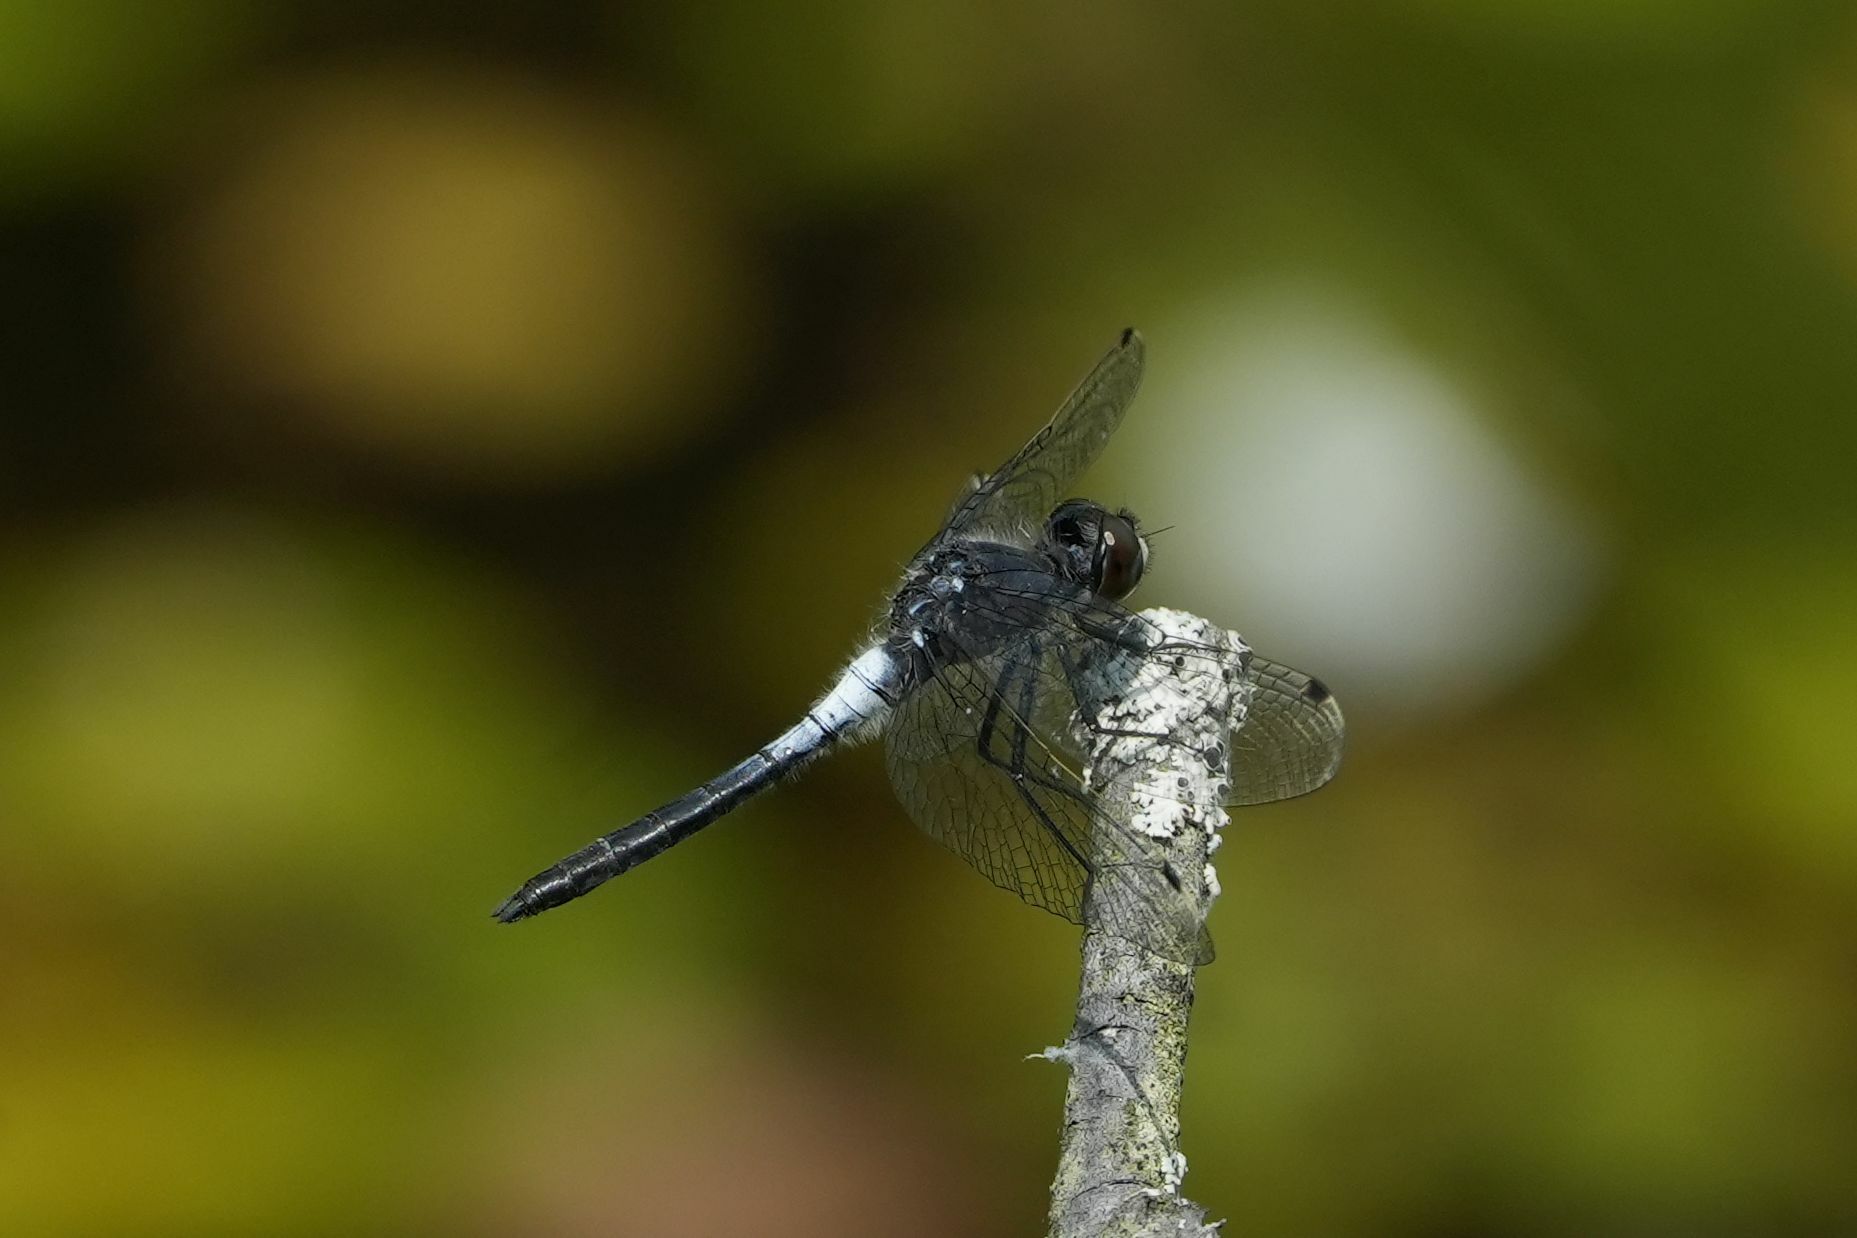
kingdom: Animalia
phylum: Arthropoda
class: Insecta
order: Odonata
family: Libellulidae
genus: Leucorrhinia
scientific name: Leucorrhinia frigida
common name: Frosted whiteface
